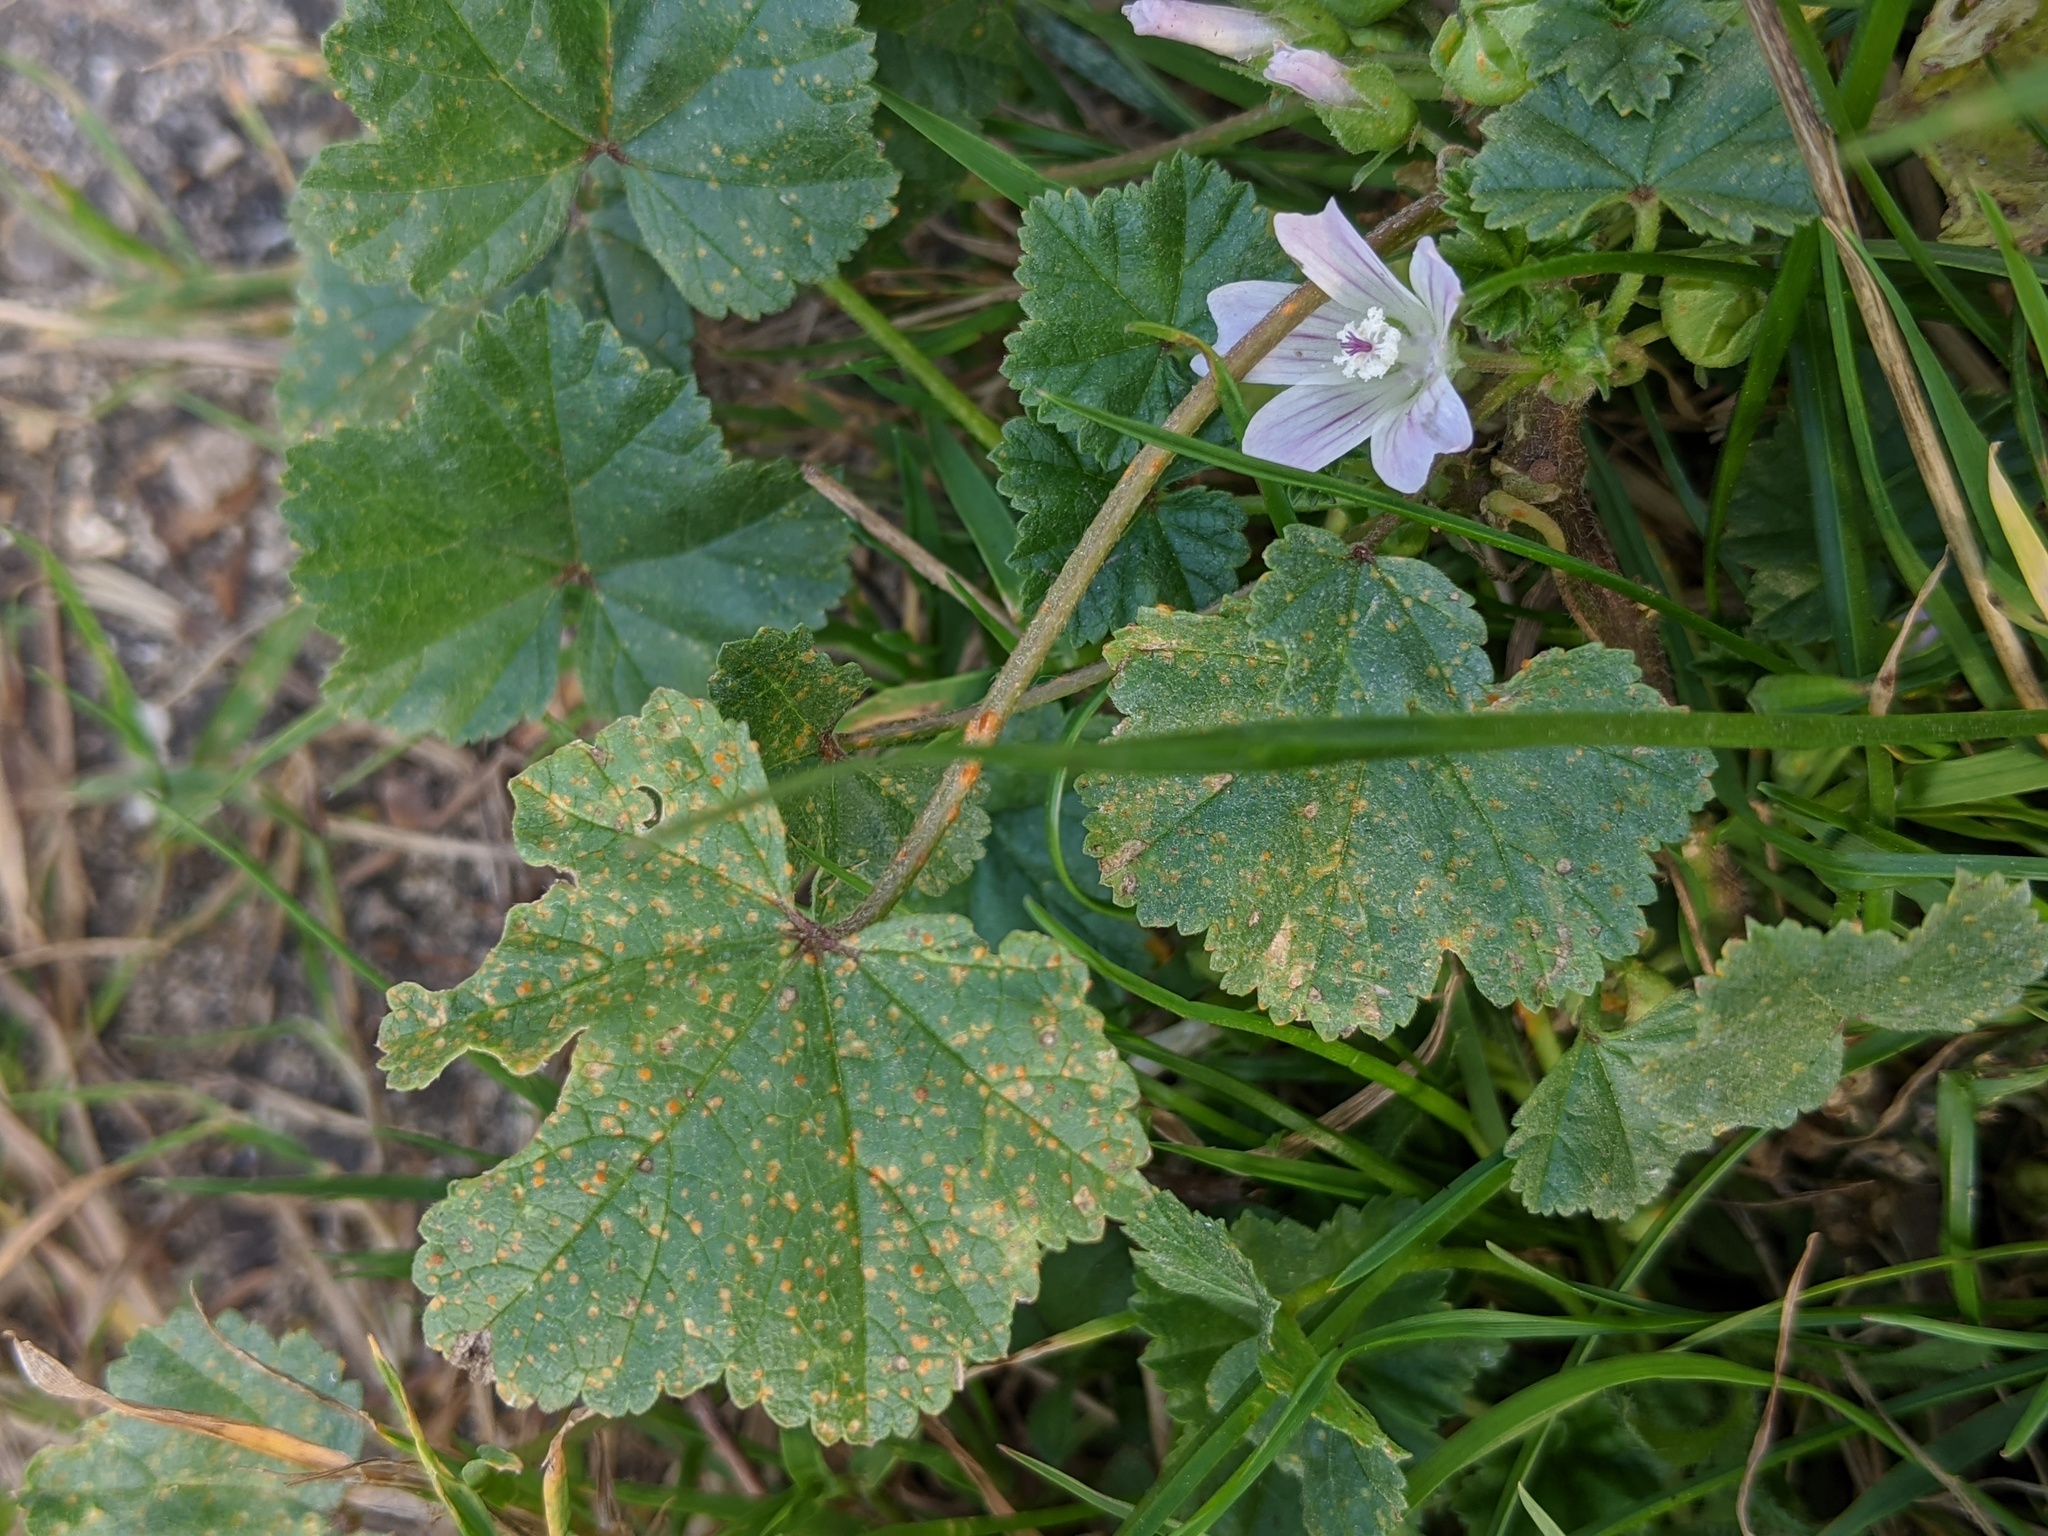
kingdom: Plantae
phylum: Tracheophyta
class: Magnoliopsida
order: Malvales
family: Malvaceae
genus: Malva
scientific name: Malva neglecta
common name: Common mallow
